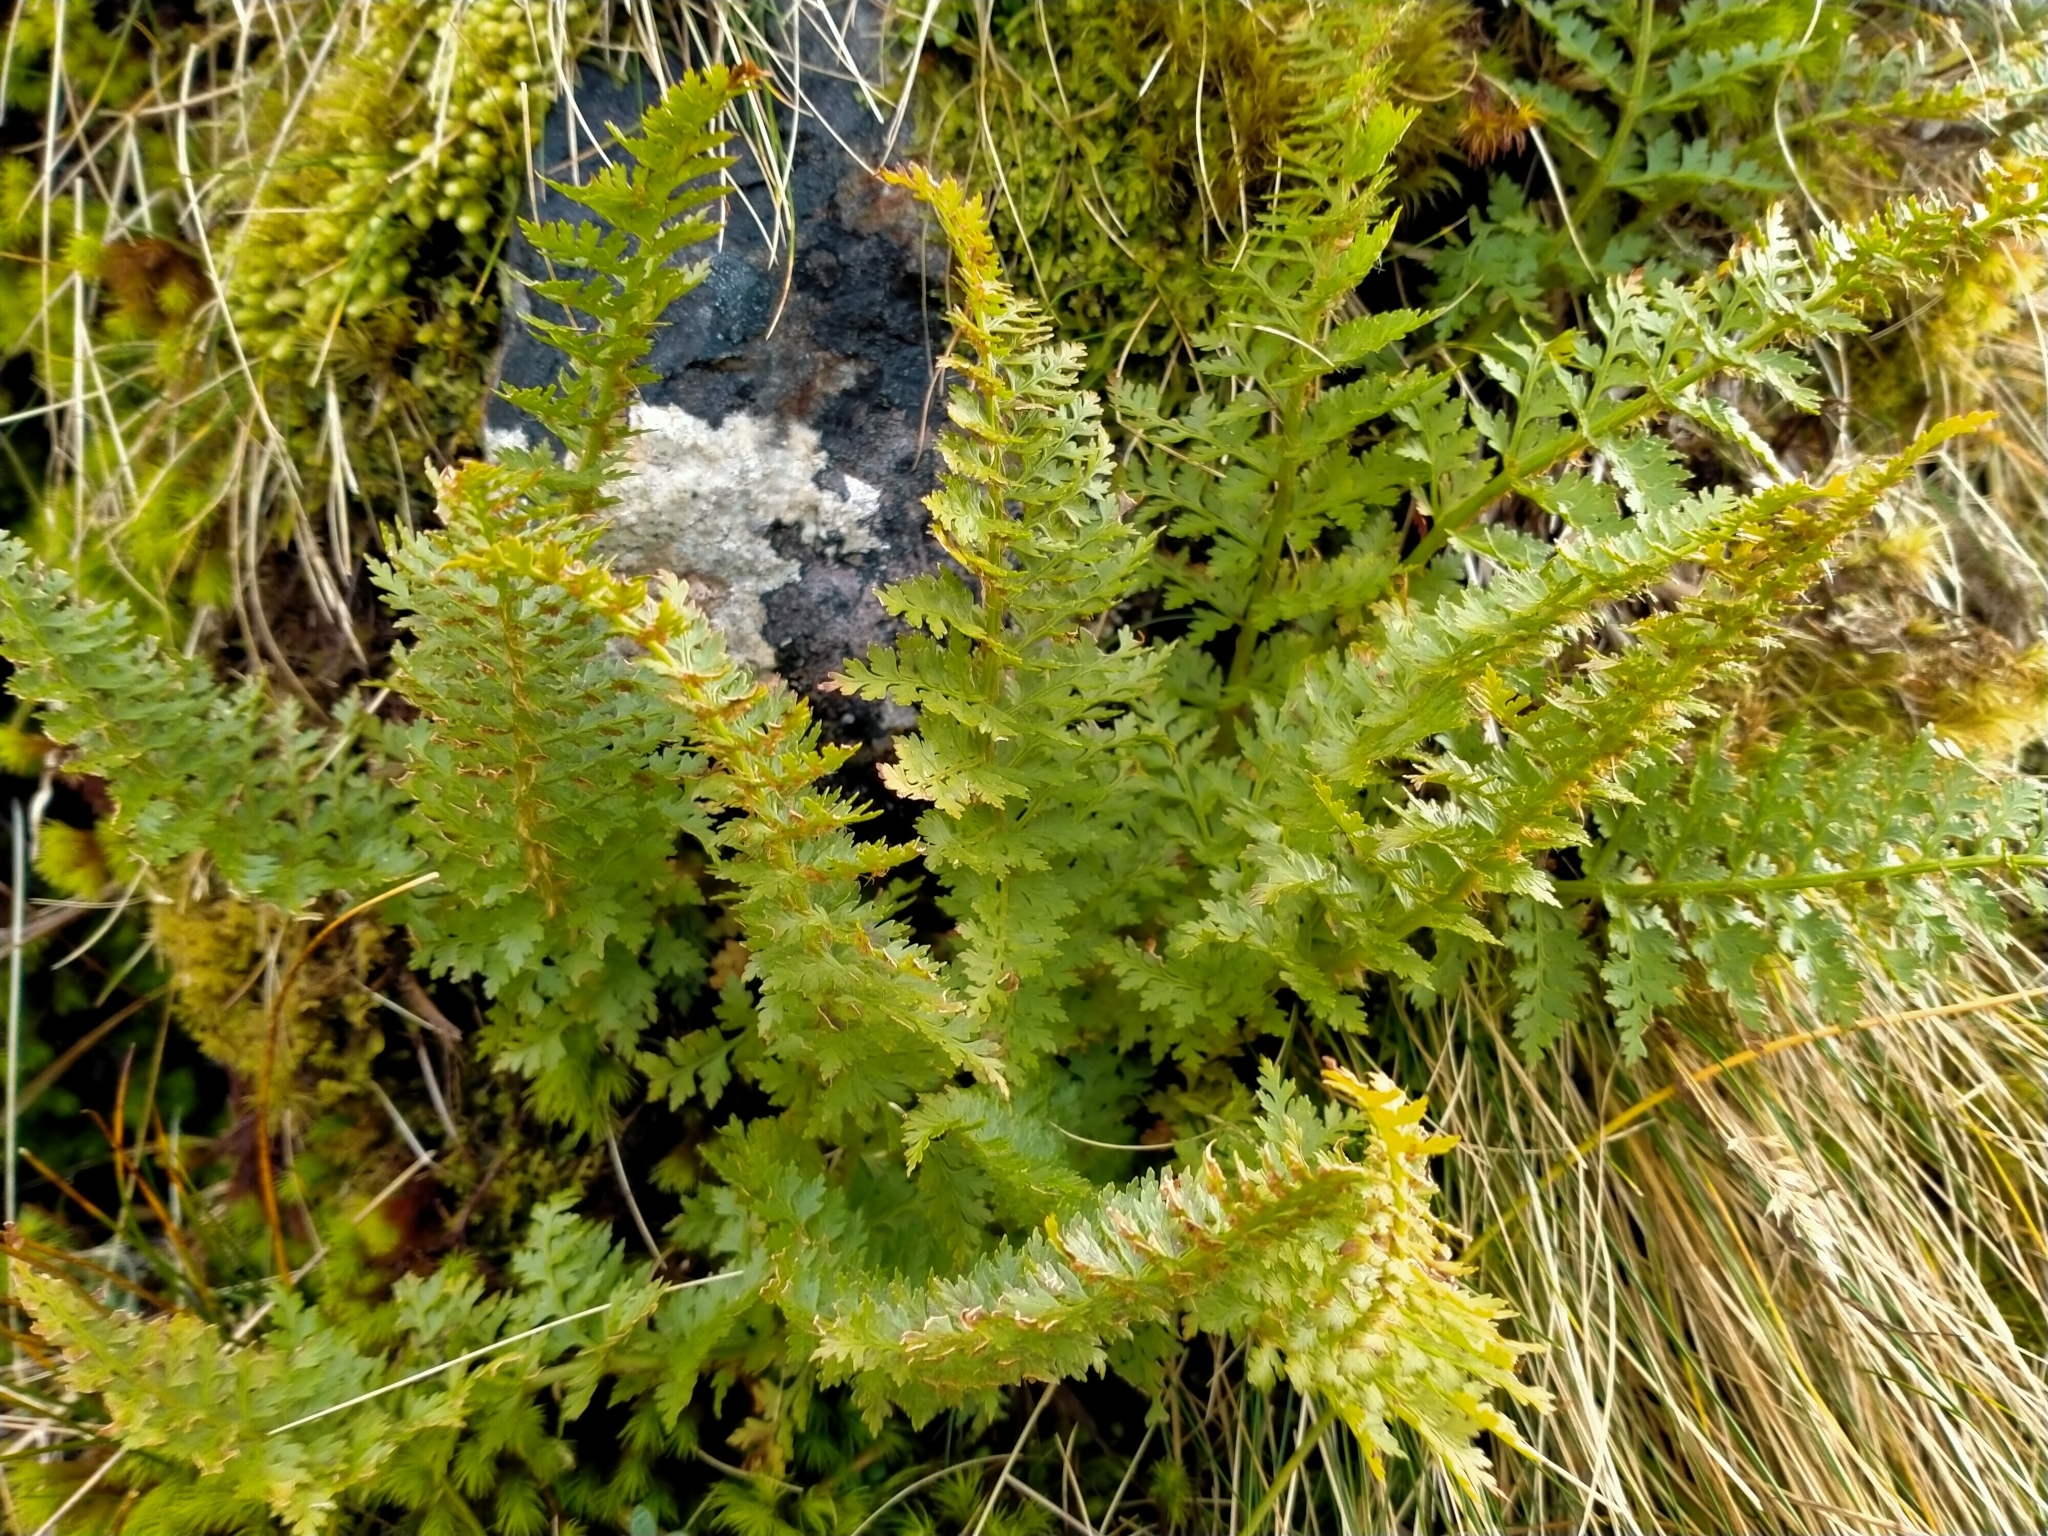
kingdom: Plantae
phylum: Tracheophyta
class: Polypodiopsida
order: Polypodiales
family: Dryopteridaceae
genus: Polystichum
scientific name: Polystichum cystostegia
